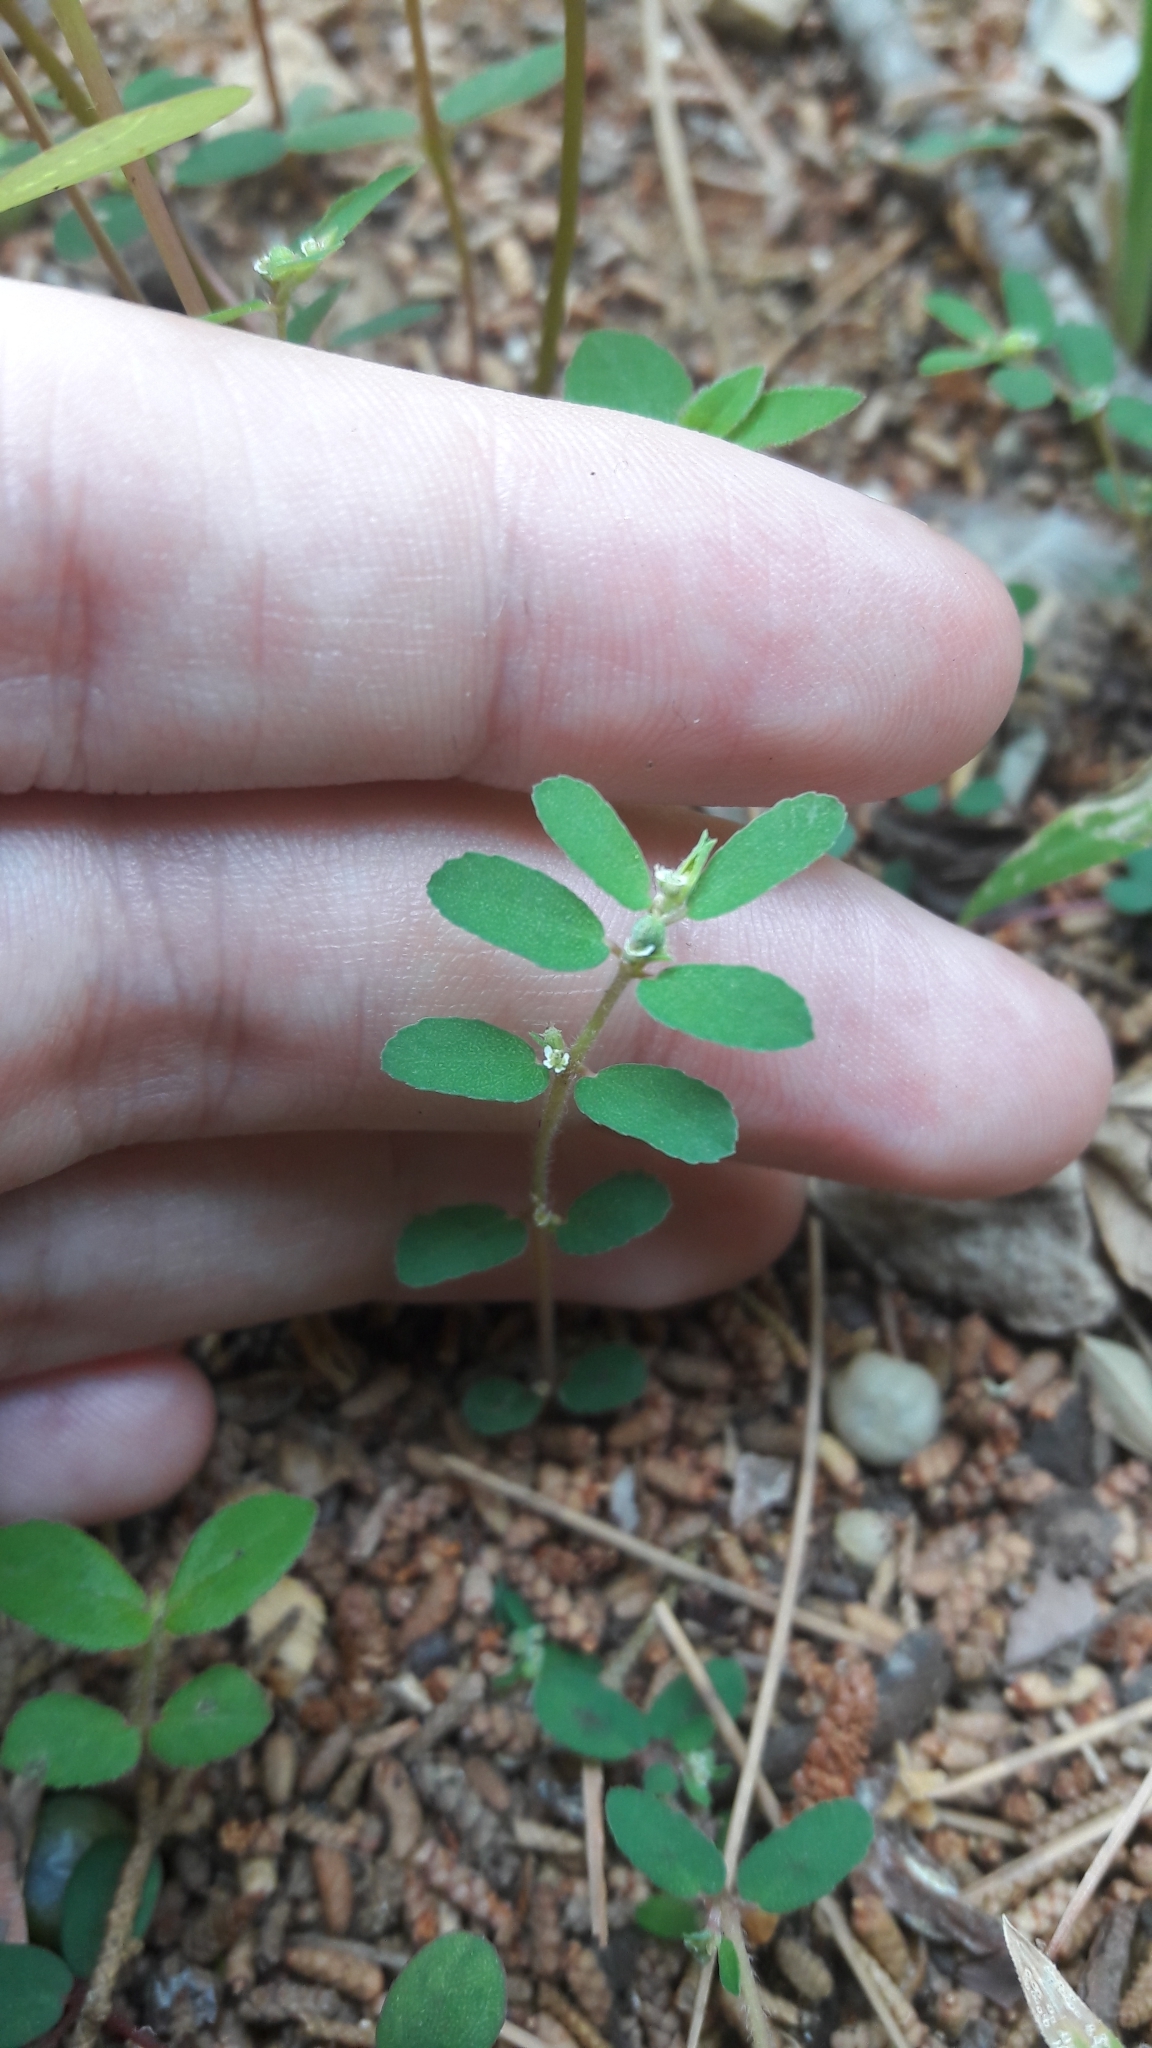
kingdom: Plantae
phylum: Tracheophyta
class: Magnoliopsida
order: Malpighiales
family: Euphorbiaceae
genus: Euphorbia
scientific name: Euphorbia maculata
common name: Spotted spurge
